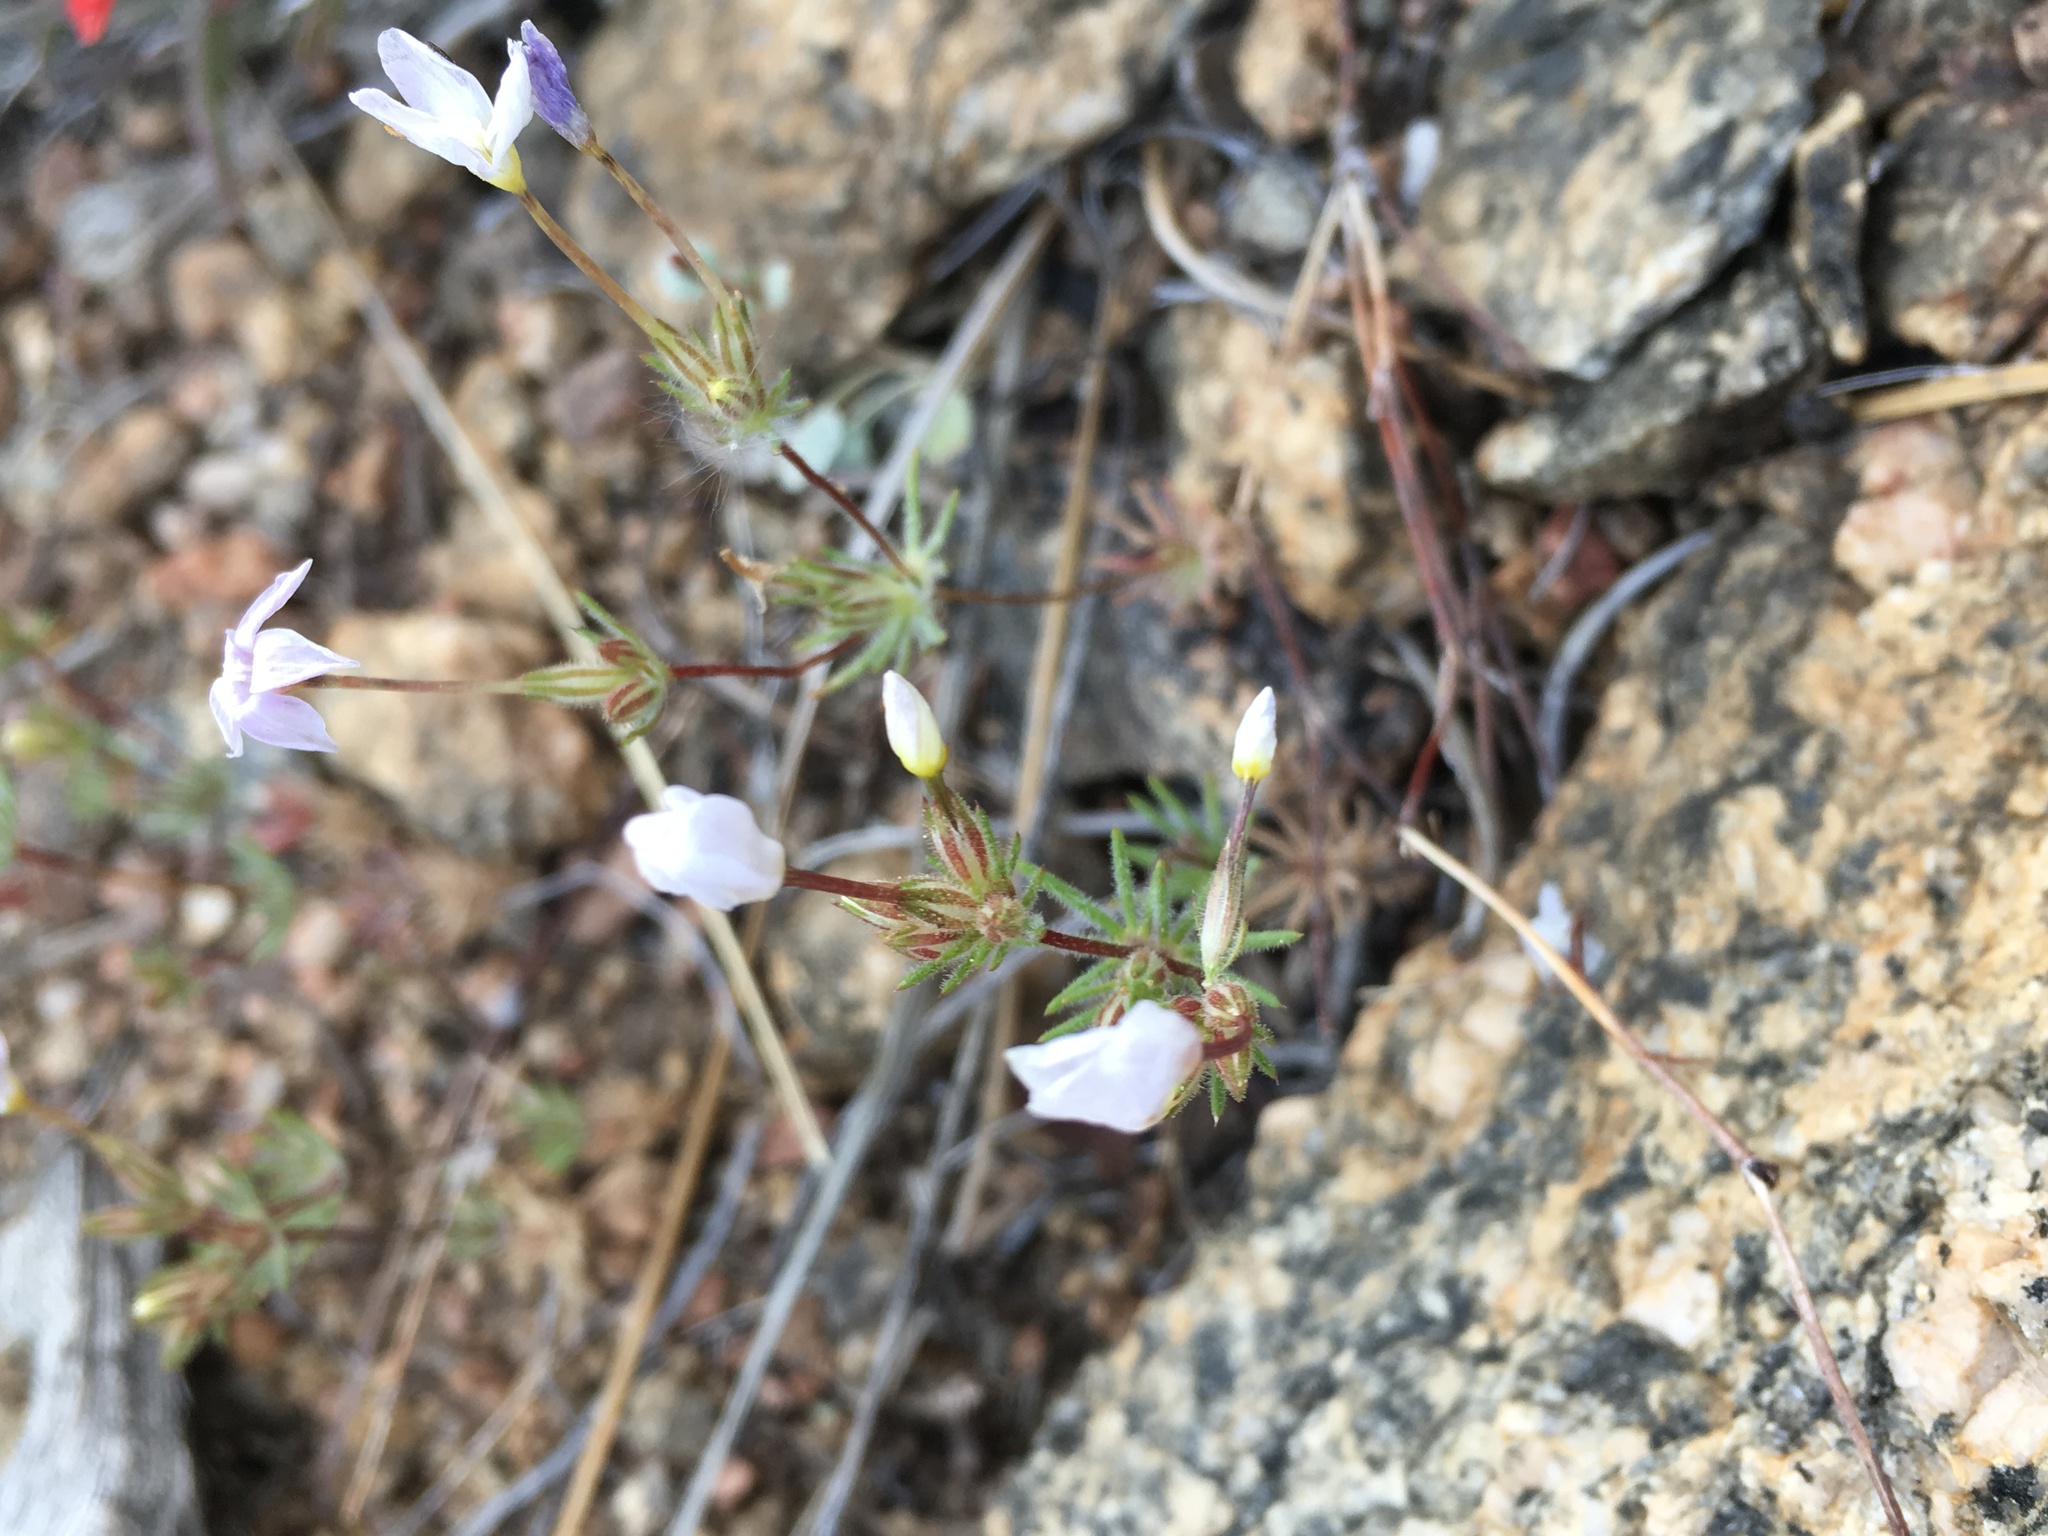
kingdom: Plantae
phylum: Tracheophyta
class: Magnoliopsida
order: Ericales
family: Polemoniaceae
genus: Leptosiphon
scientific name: Leptosiphon breviculus
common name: Mojave linanthus
